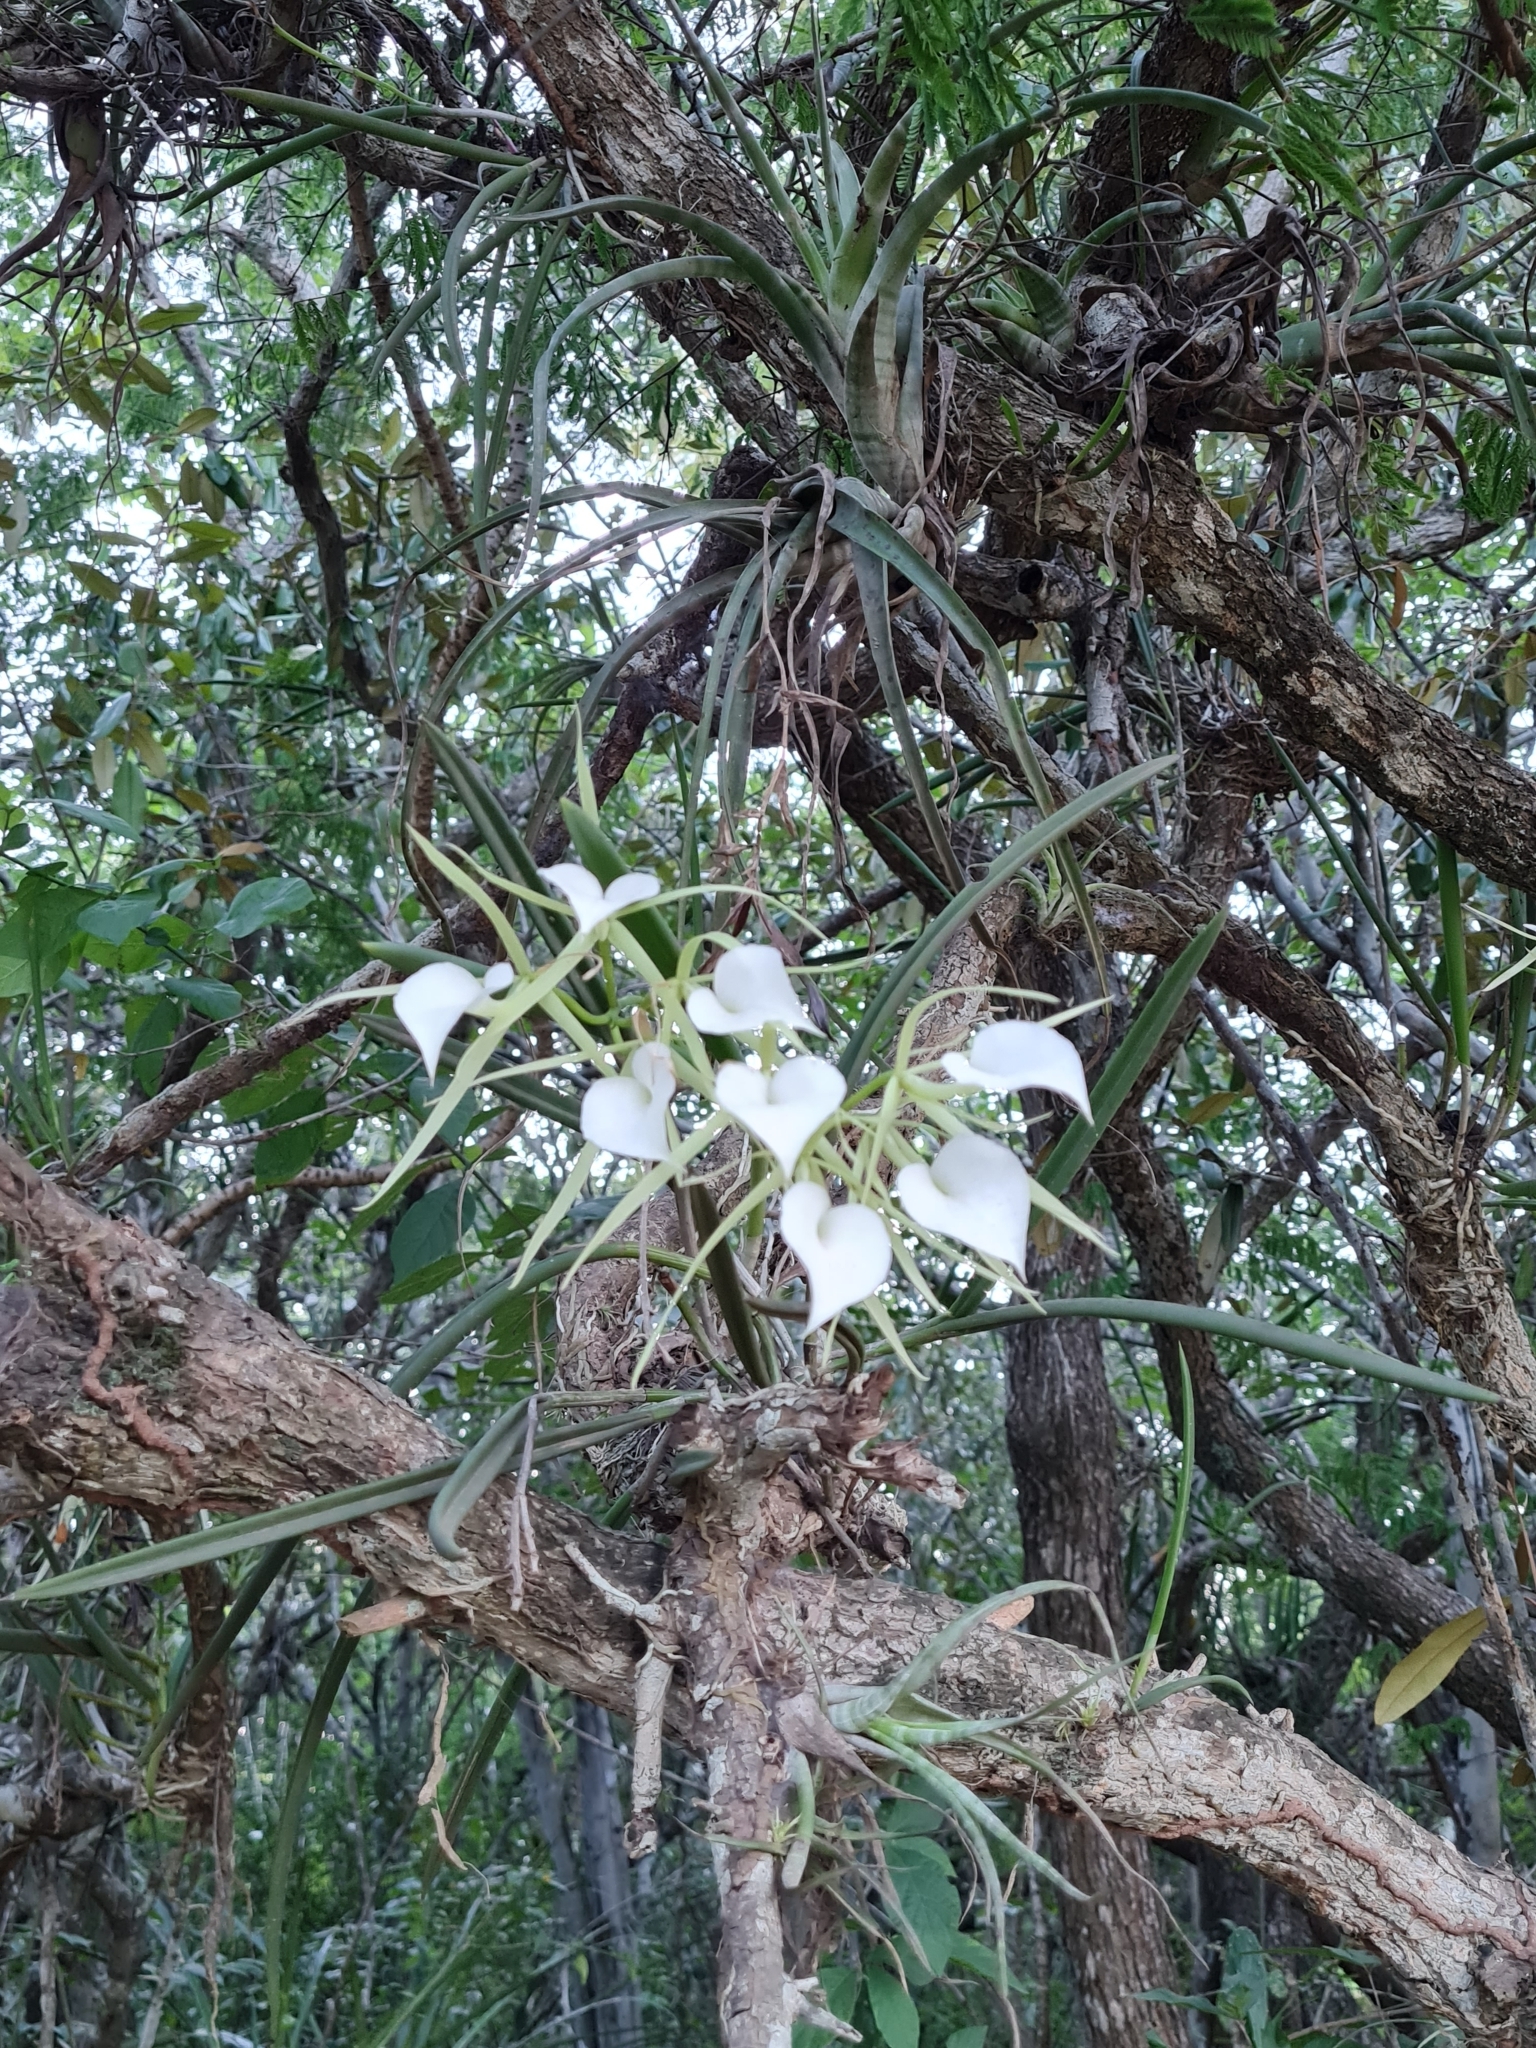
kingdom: Plantae
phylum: Tracheophyta
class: Liliopsida
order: Asparagales
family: Orchidaceae
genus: Brassavola
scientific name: Brassavola nodosa
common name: Lady of the night
